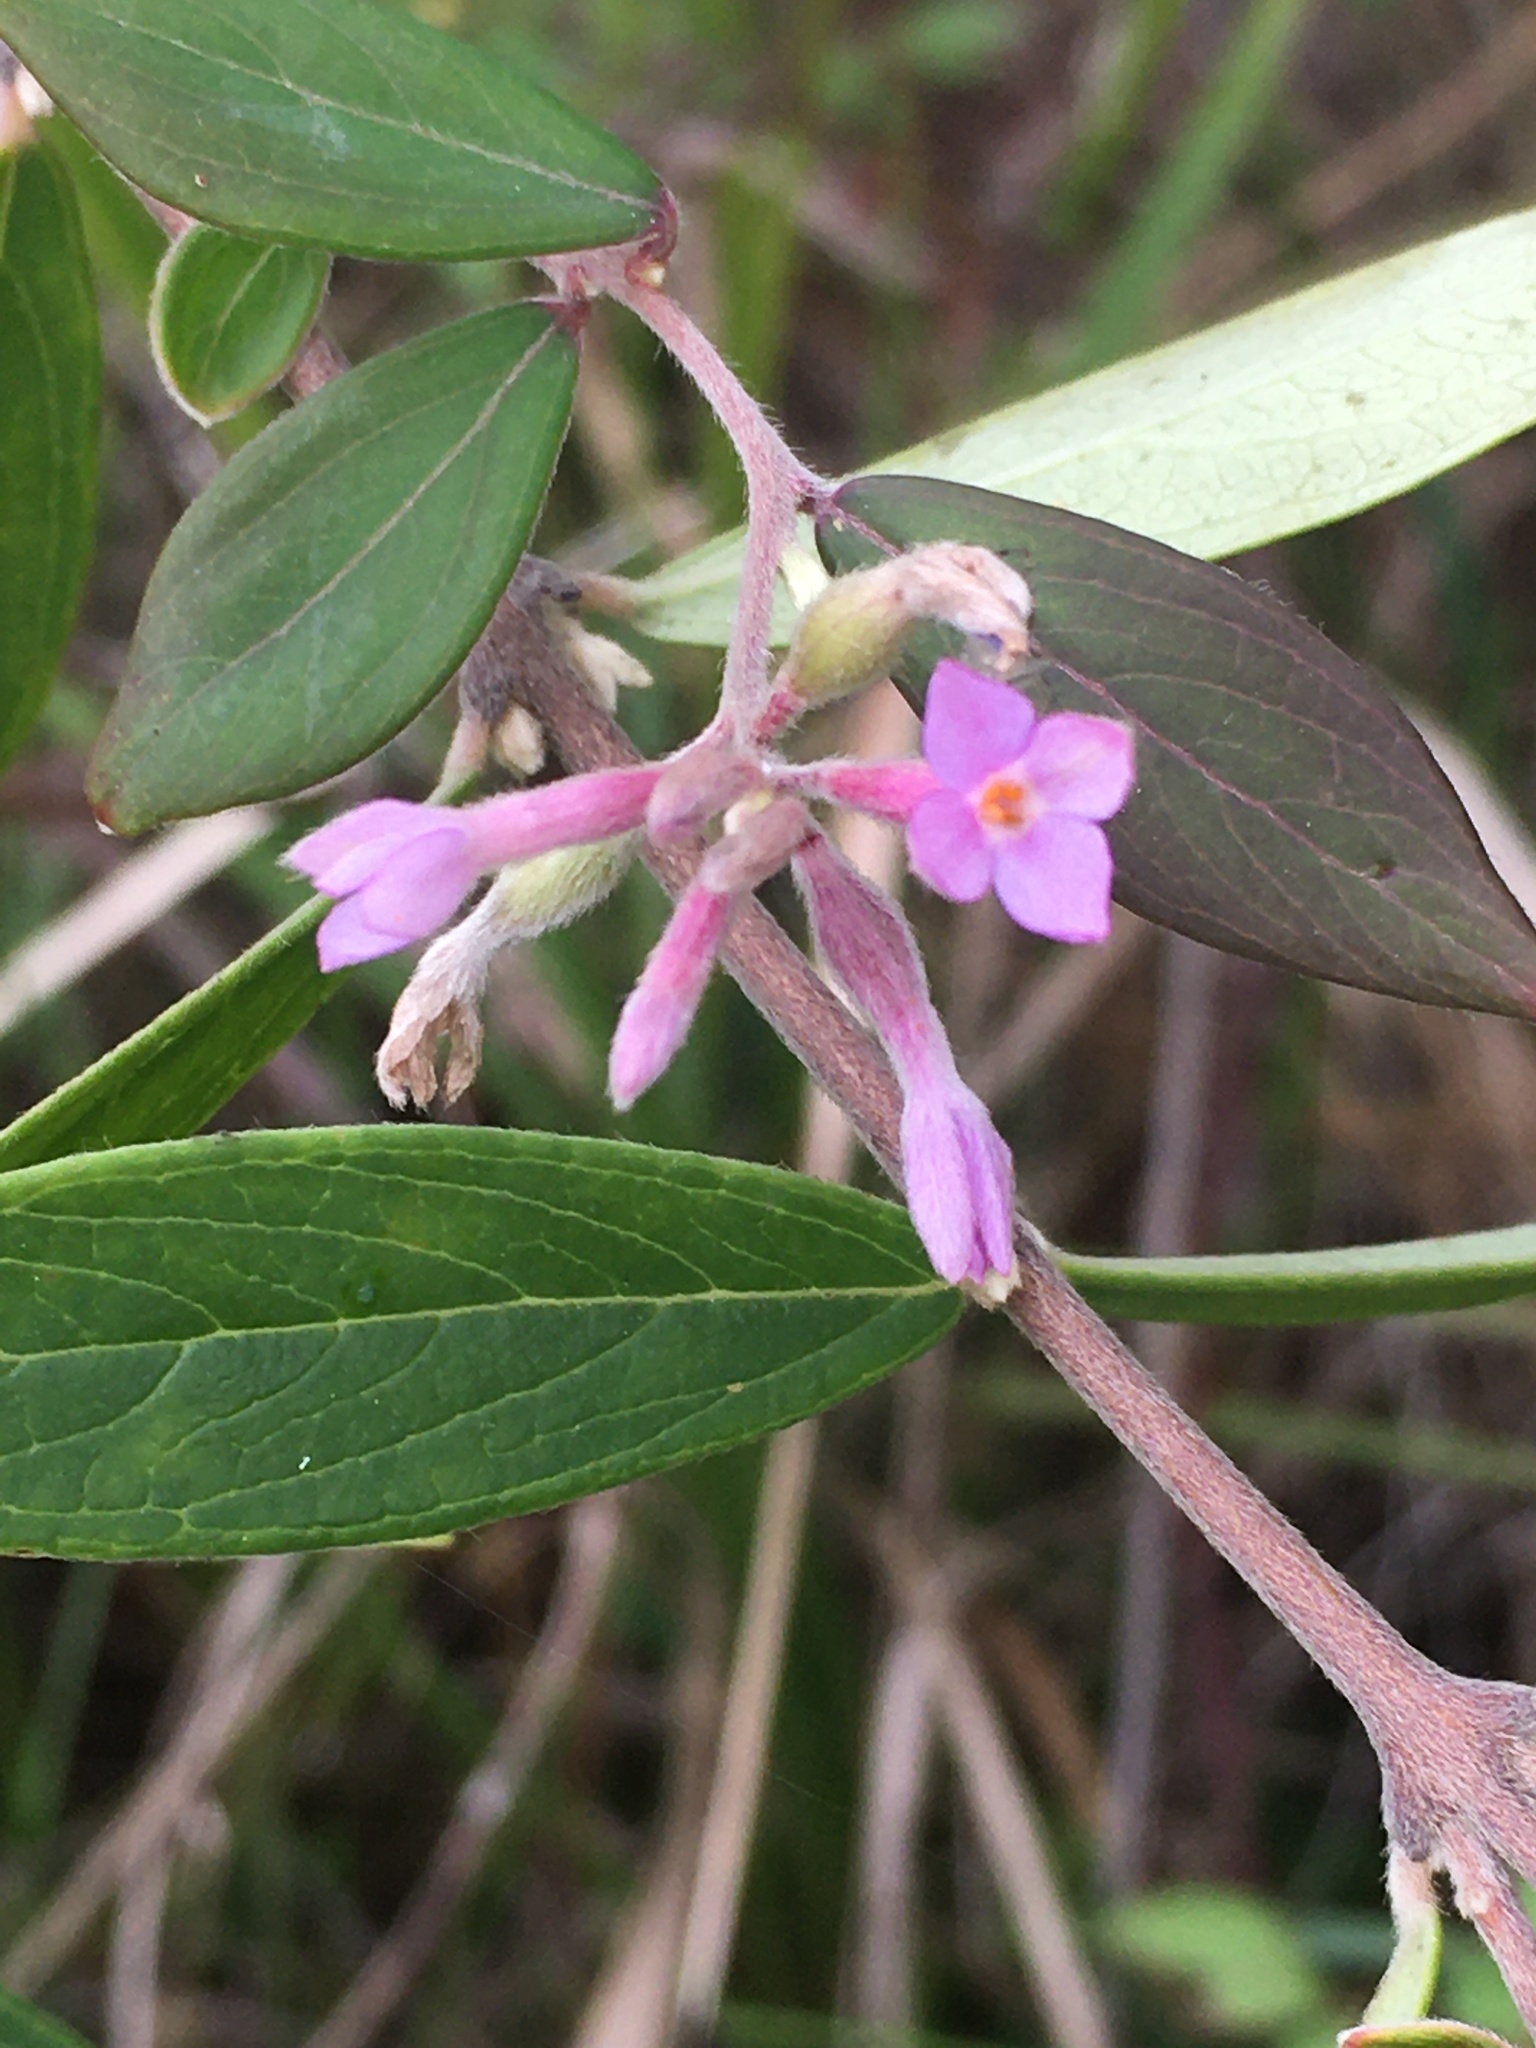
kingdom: Plantae
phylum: Tracheophyta
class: Magnoliopsida
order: Malvales
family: Thymelaeaceae
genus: Wikstroemia
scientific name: Wikstroemia genkwa
